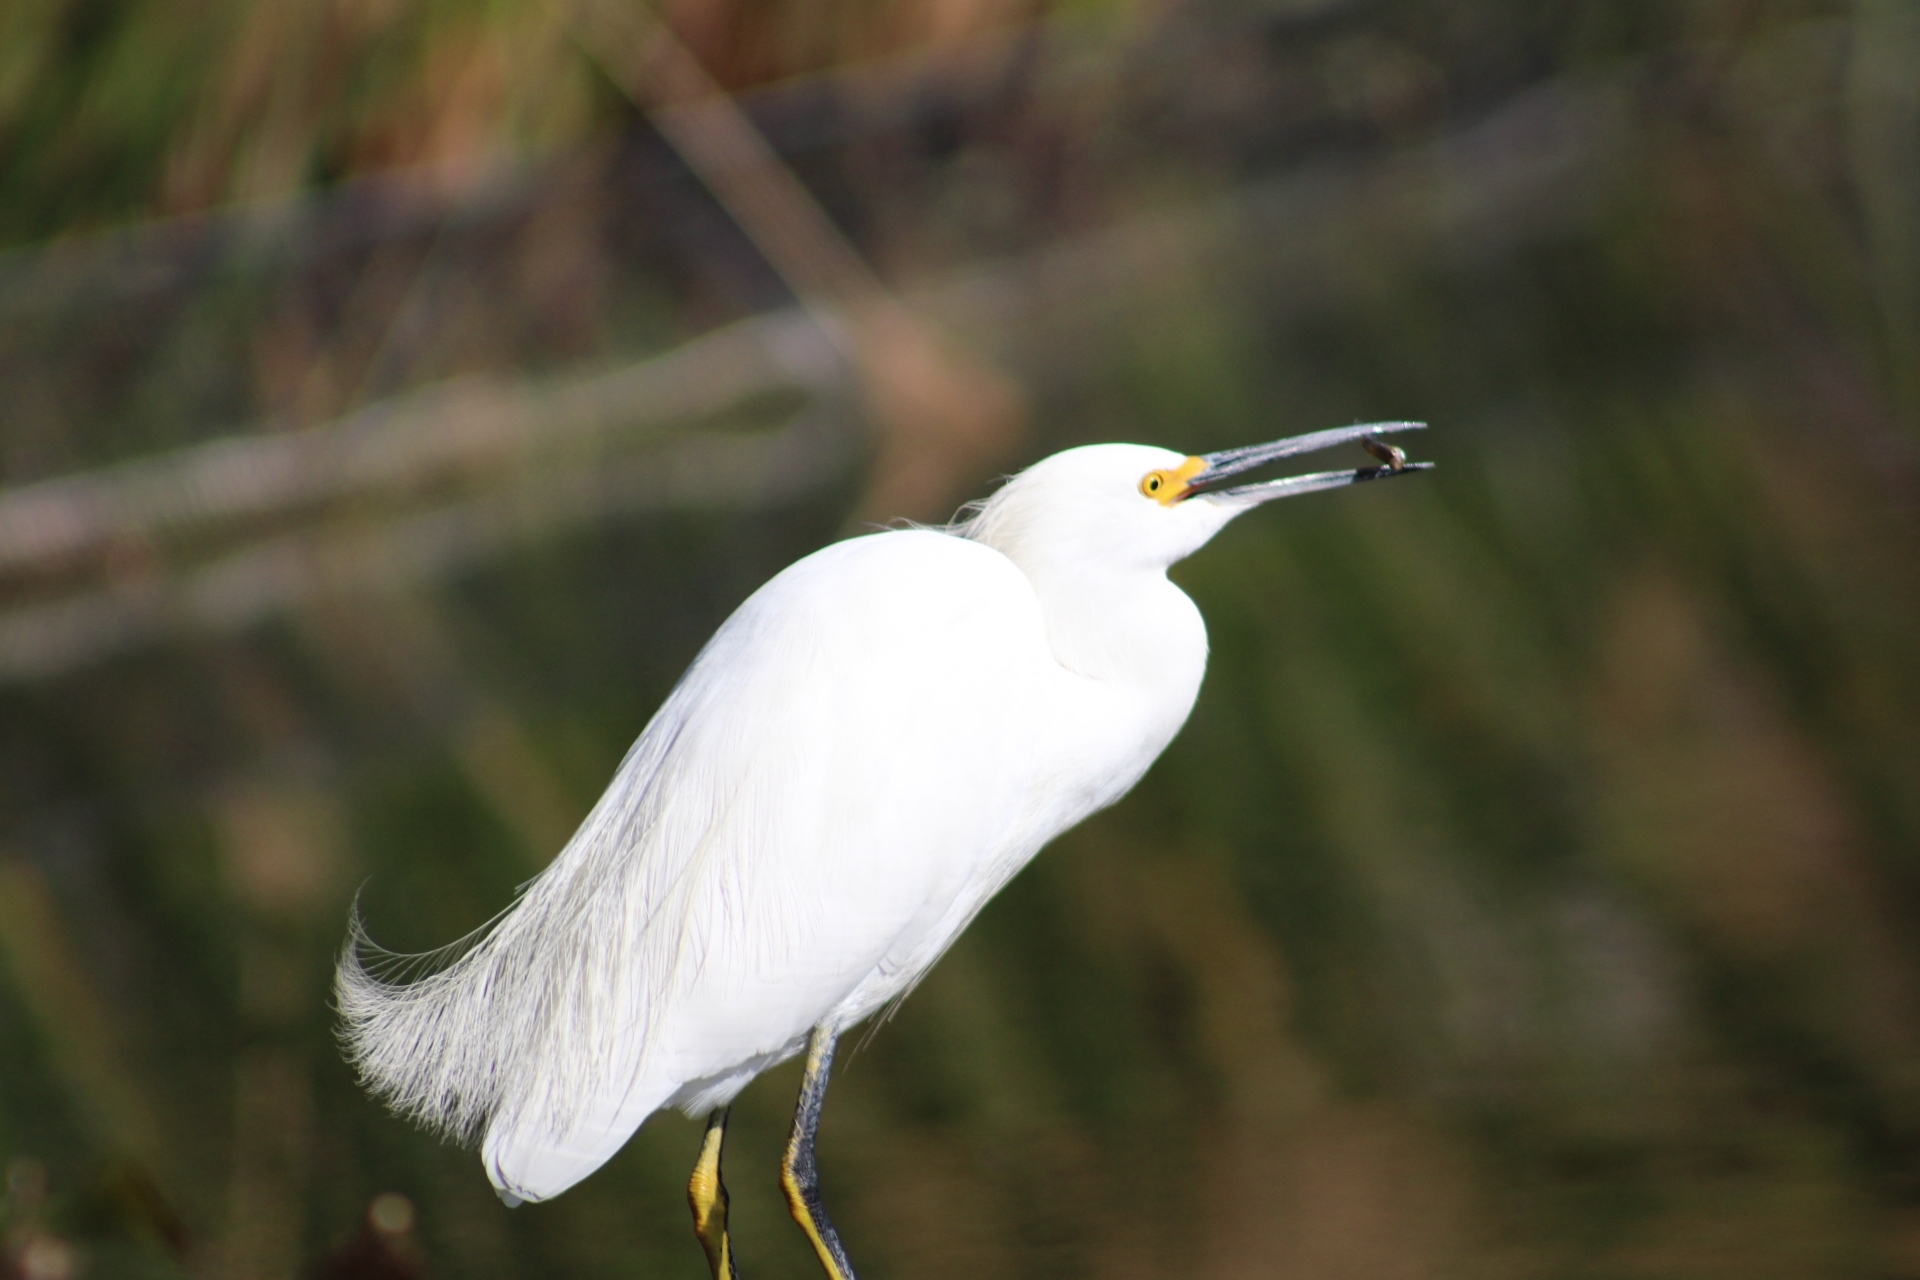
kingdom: Animalia
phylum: Chordata
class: Aves
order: Pelecaniformes
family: Ardeidae
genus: Egretta
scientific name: Egretta thula
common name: Snowy egret
